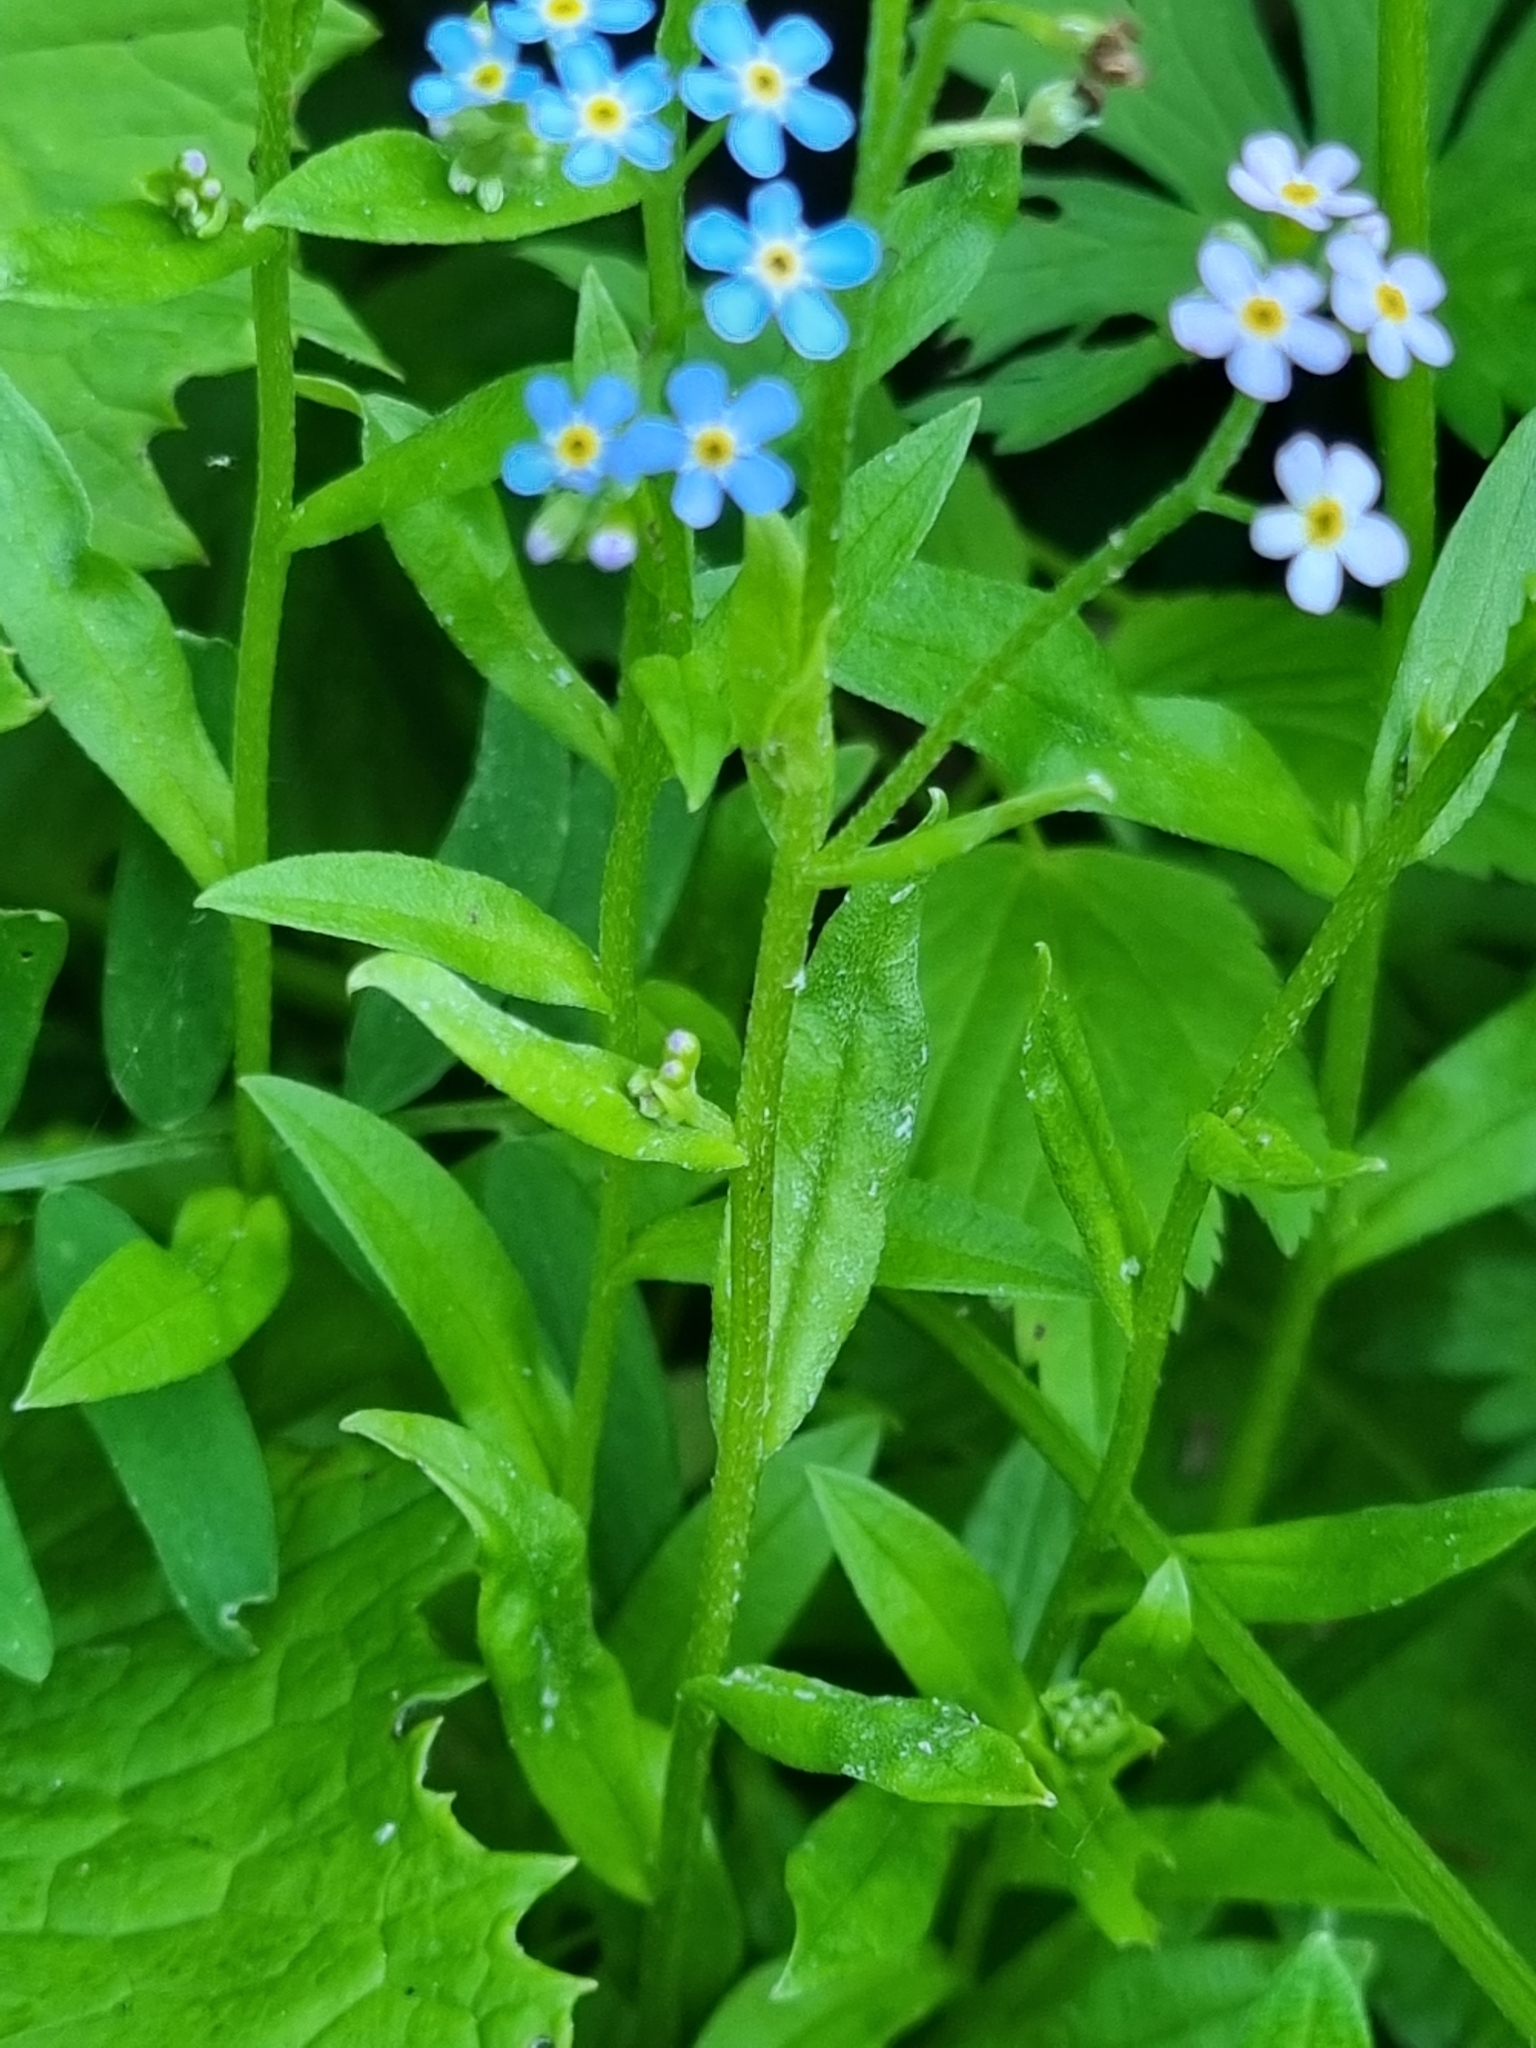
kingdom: Plantae
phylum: Tracheophyta
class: Magnoliopsida
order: Boraginales
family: Boraginaceae
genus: Myosotis
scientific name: Myosotis scorpioides
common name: Water forget-me-not
